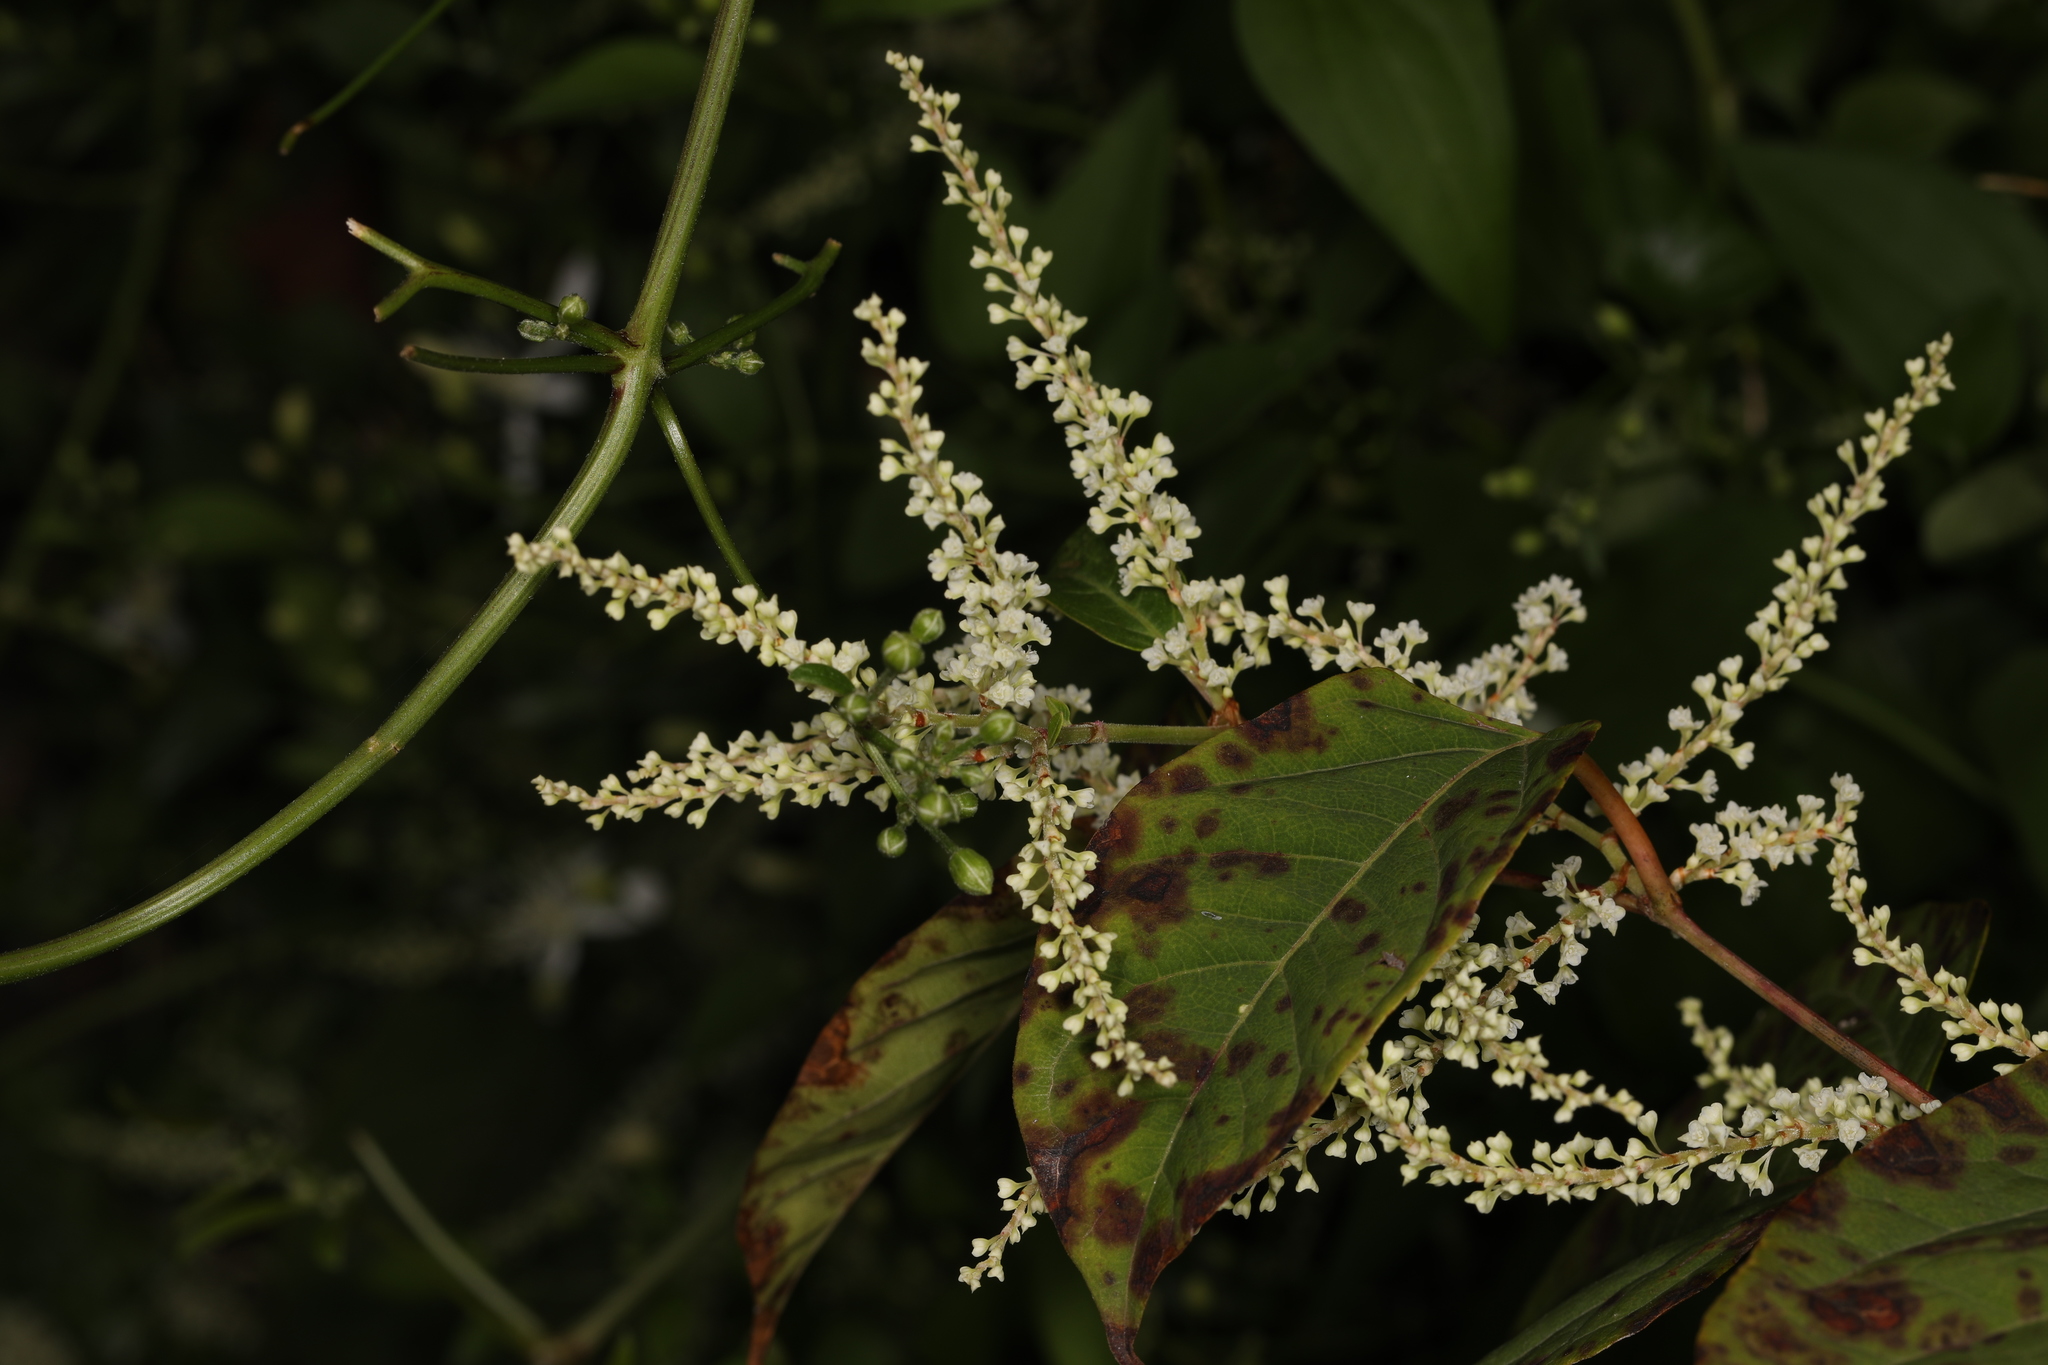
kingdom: Plantae
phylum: Tracheophyta
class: Magnoliopsida
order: Caryophyllales
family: Polygonaceae
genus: Reynoutria
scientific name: Reynoutria japonica
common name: Japanese knotweed
